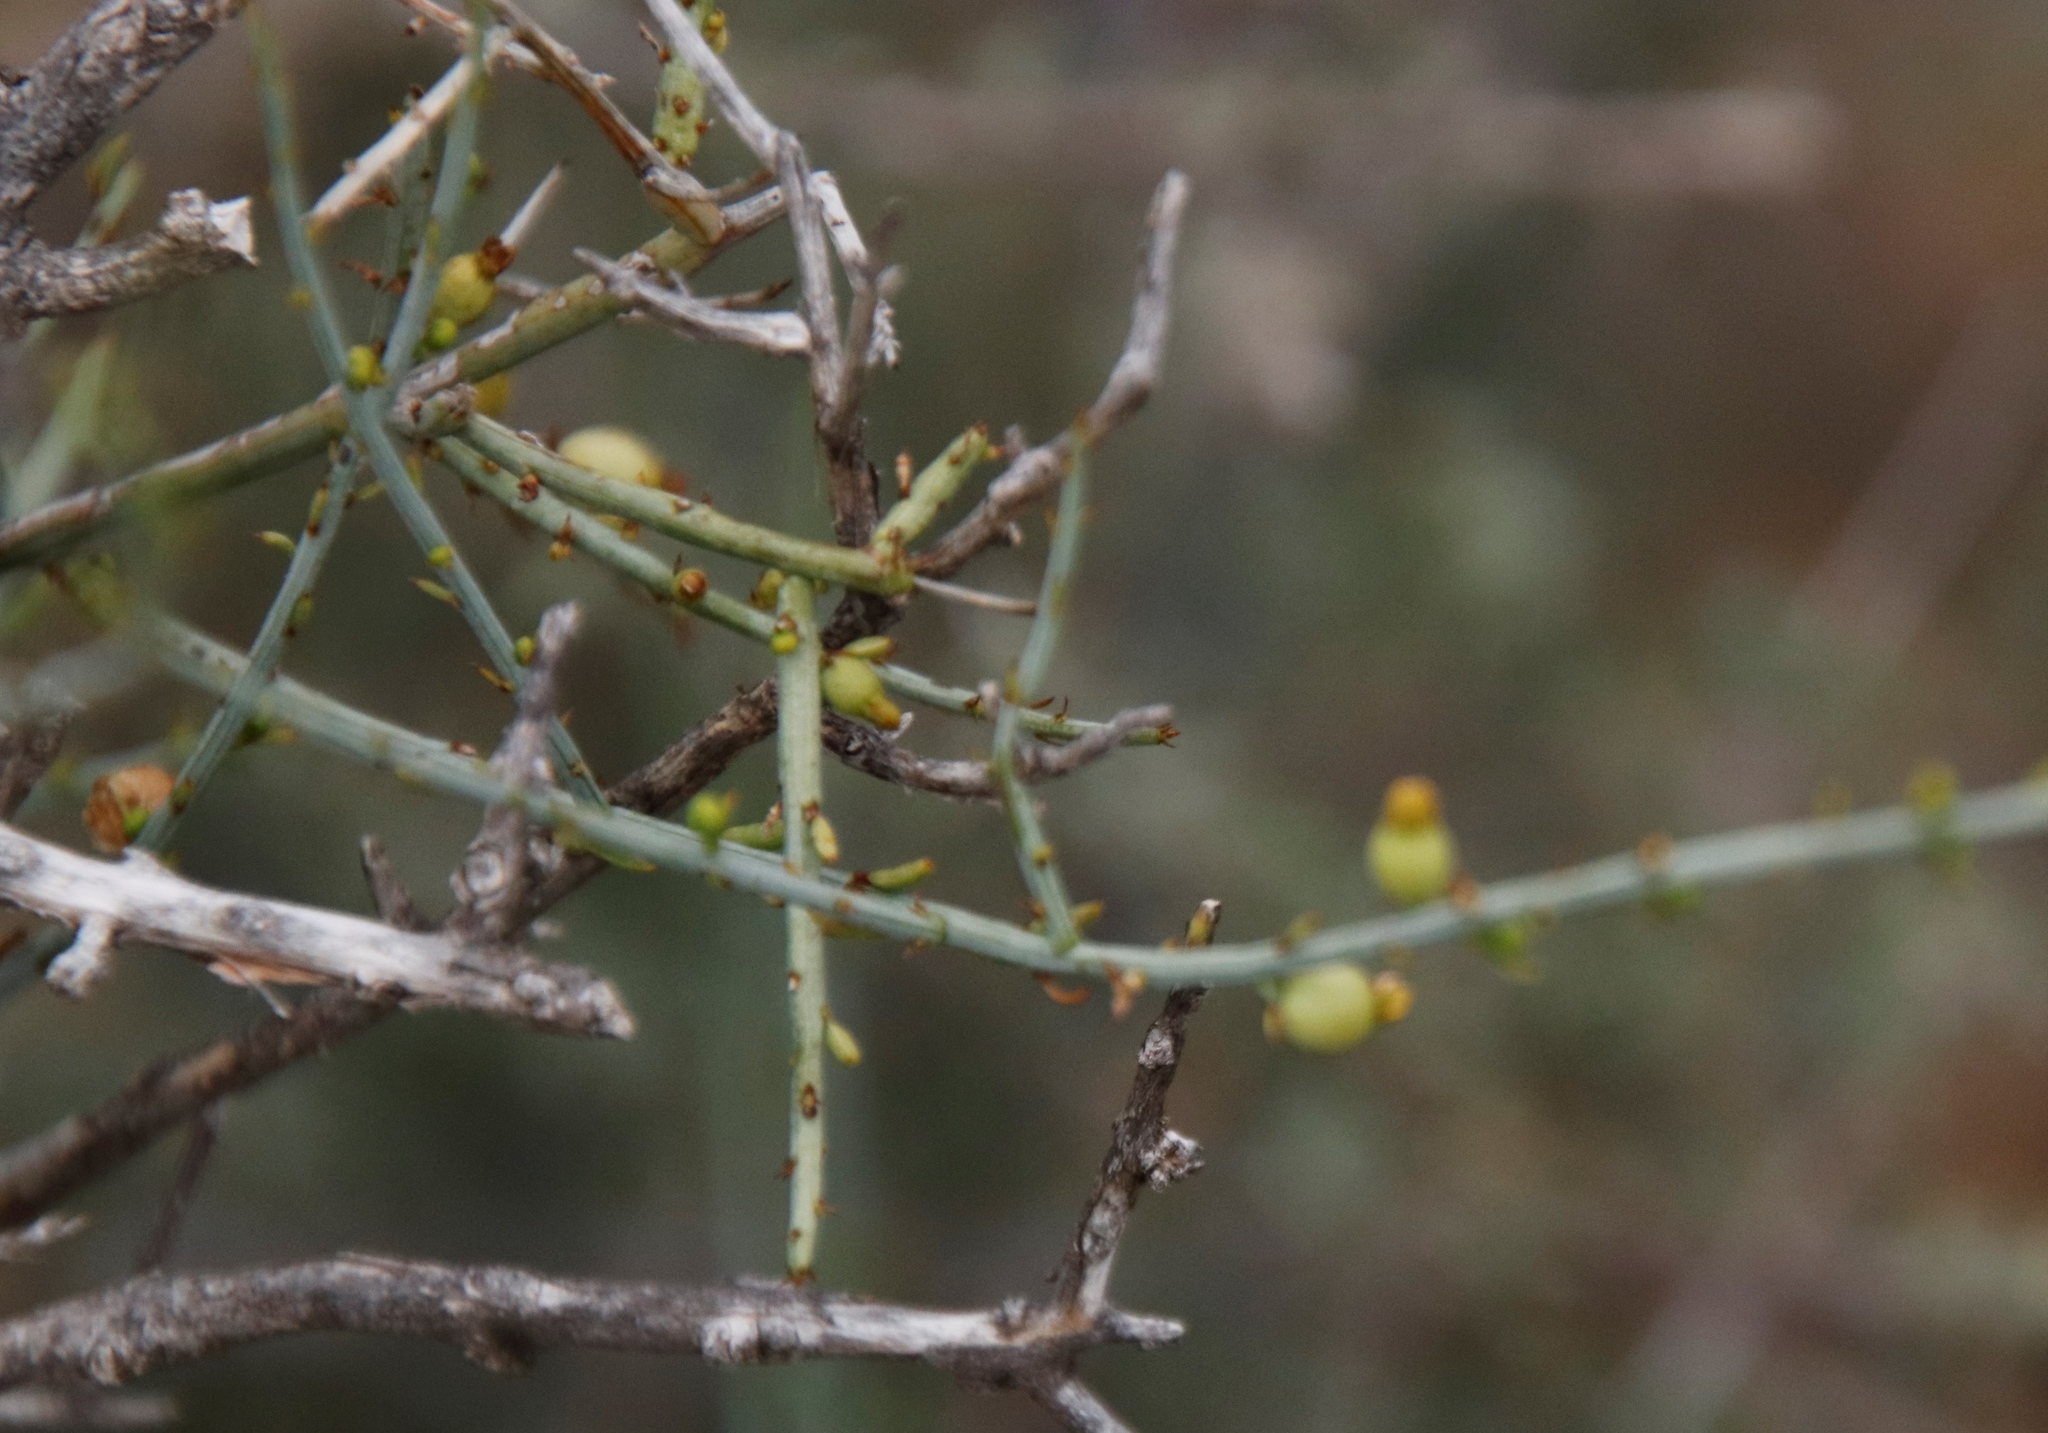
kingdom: Plantae
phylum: Tracheophyta
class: Magnoliopsida
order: Santalales
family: Thesiaceae
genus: Lacomucinaea
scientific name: Lacomucinaea lineata
